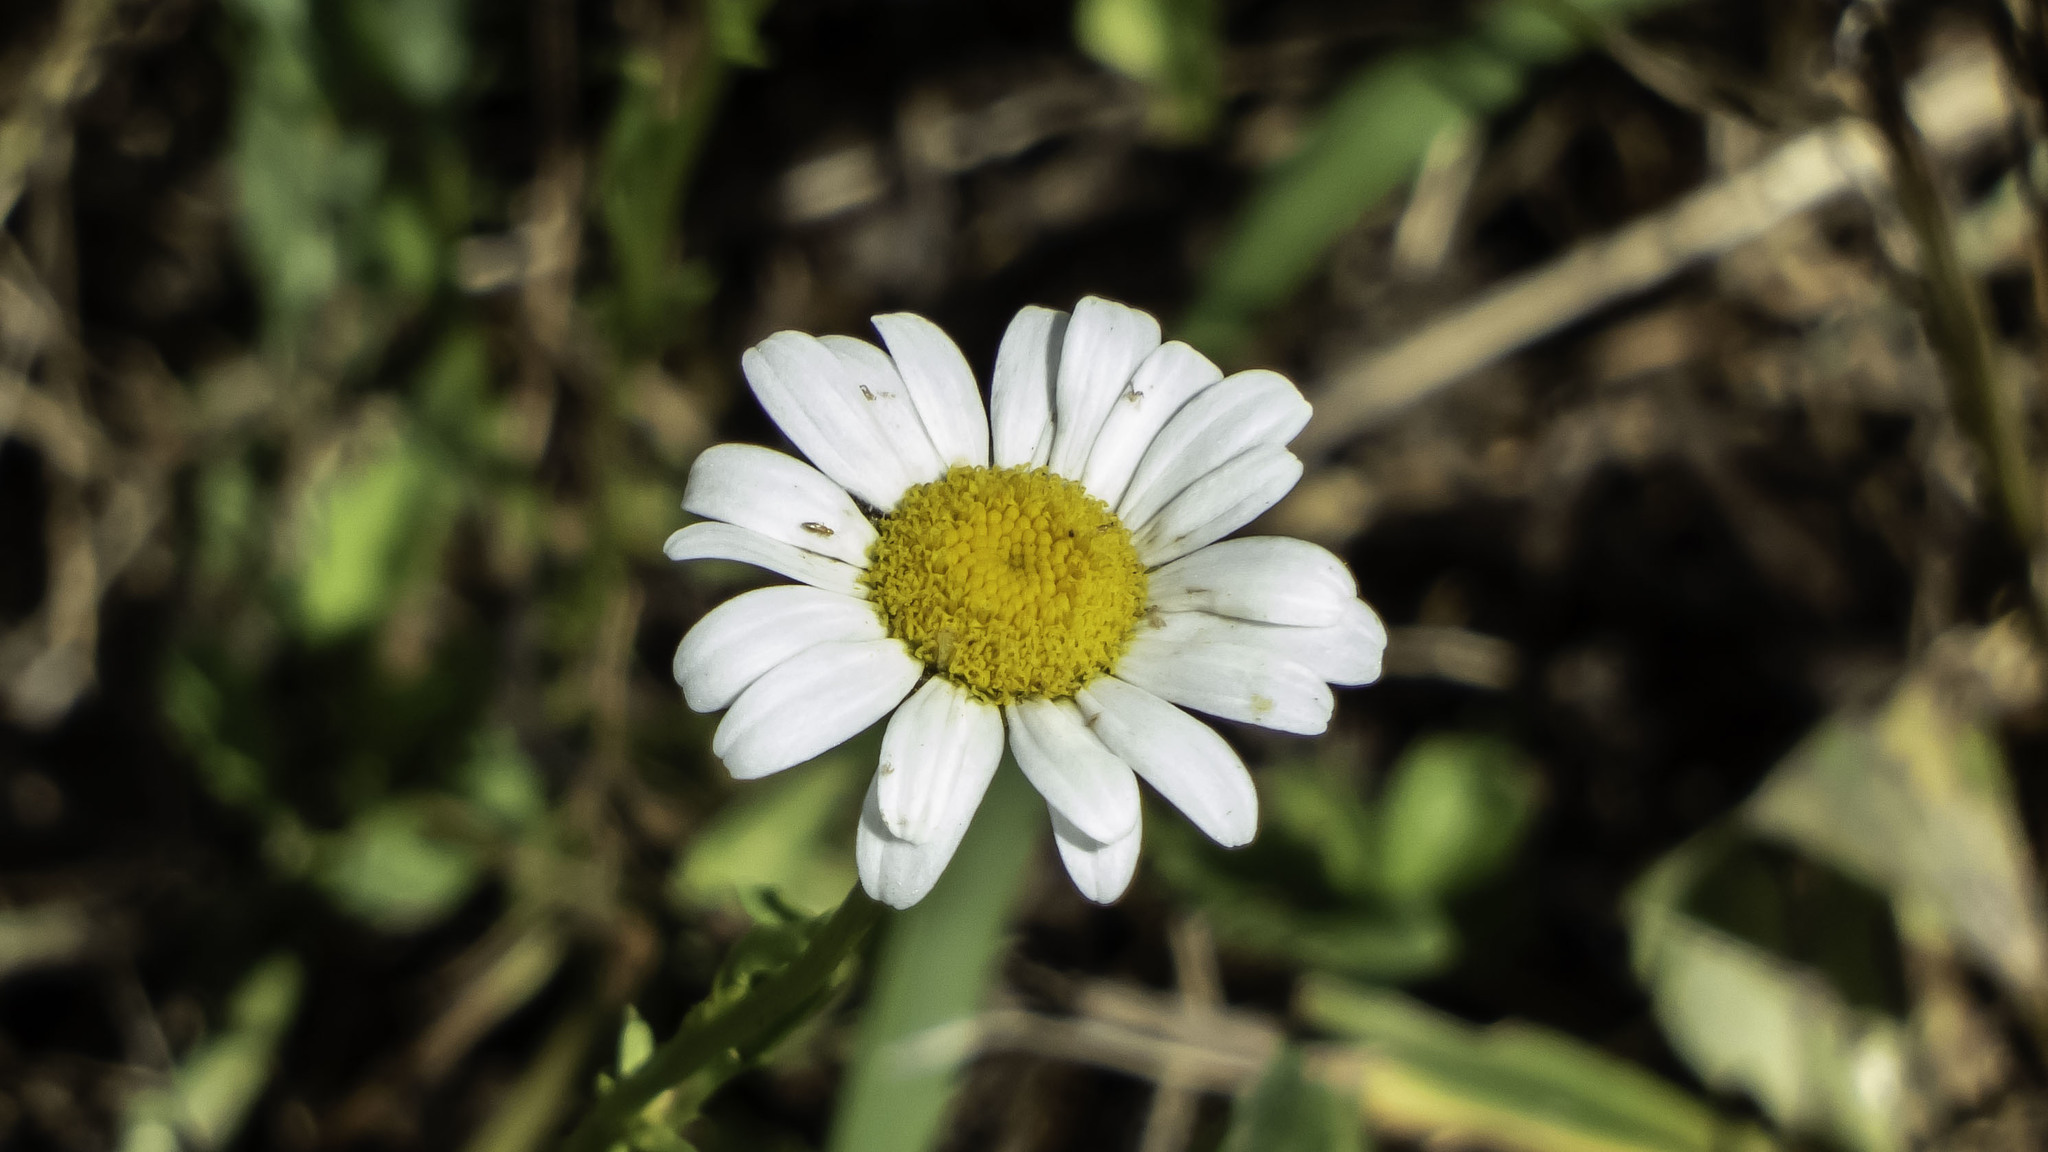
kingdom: Plantae
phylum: Tracheophyta
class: Magnoliopsida
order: Asterales
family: Asteraceae
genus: Leucanthemum
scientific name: Leucanthemum vulgare
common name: Oxeye daisy
